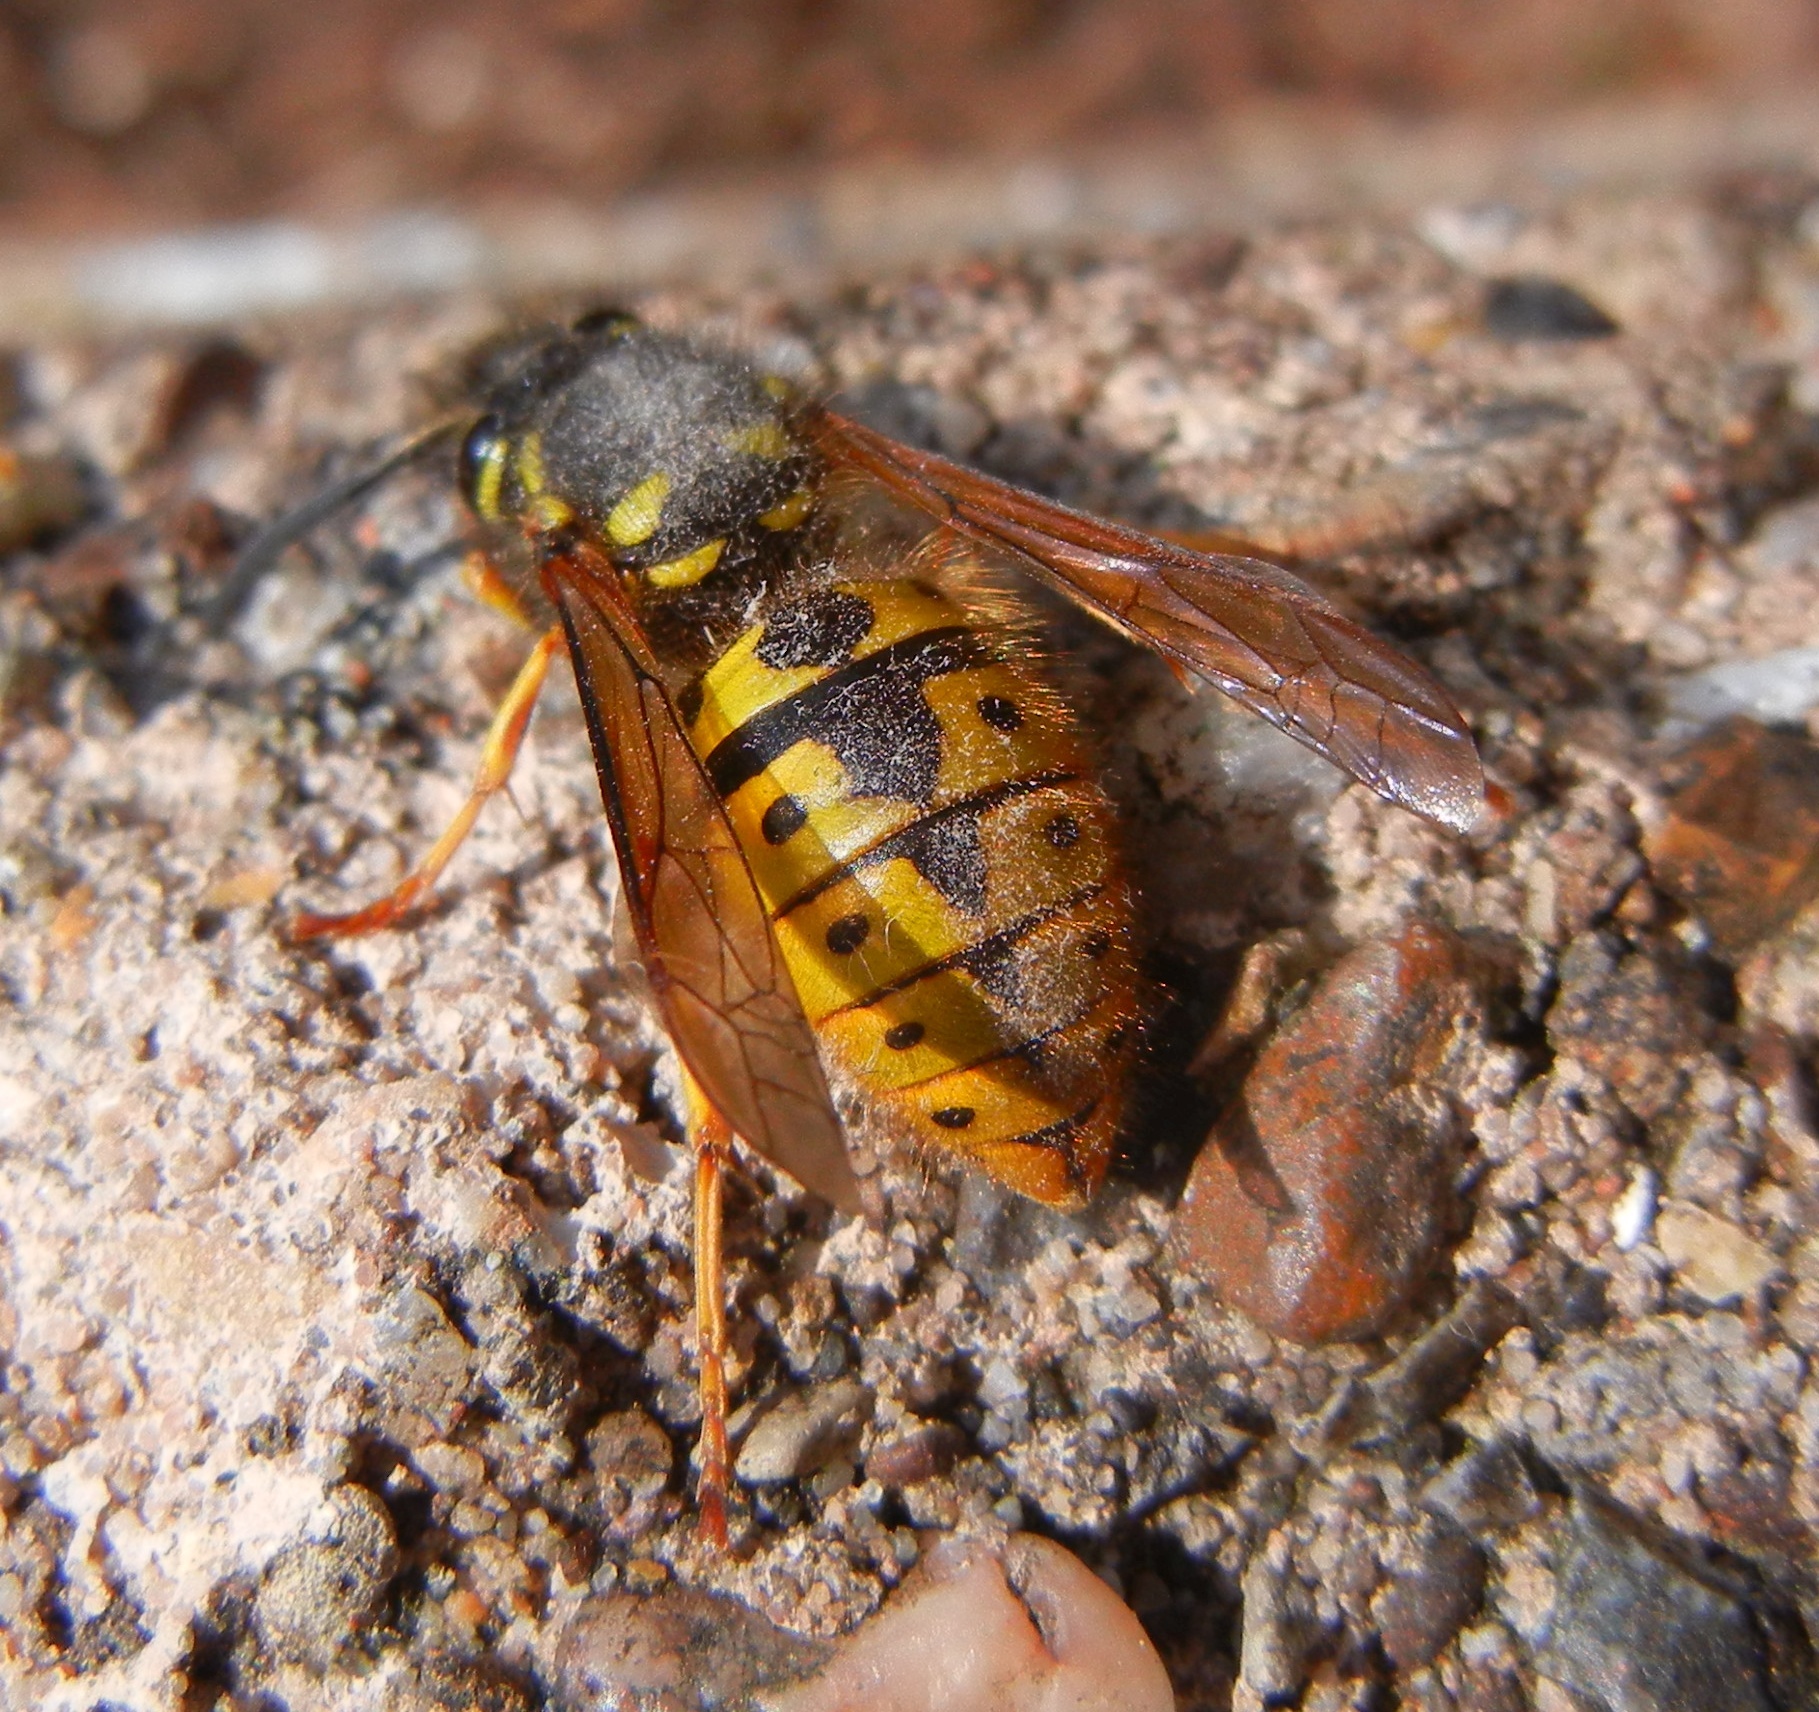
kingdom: Animalia
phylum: Arthropoda
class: Insecta
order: Hymenoptera
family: Vespidae
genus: Vespula
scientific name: Vespula germanica
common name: German wasp
